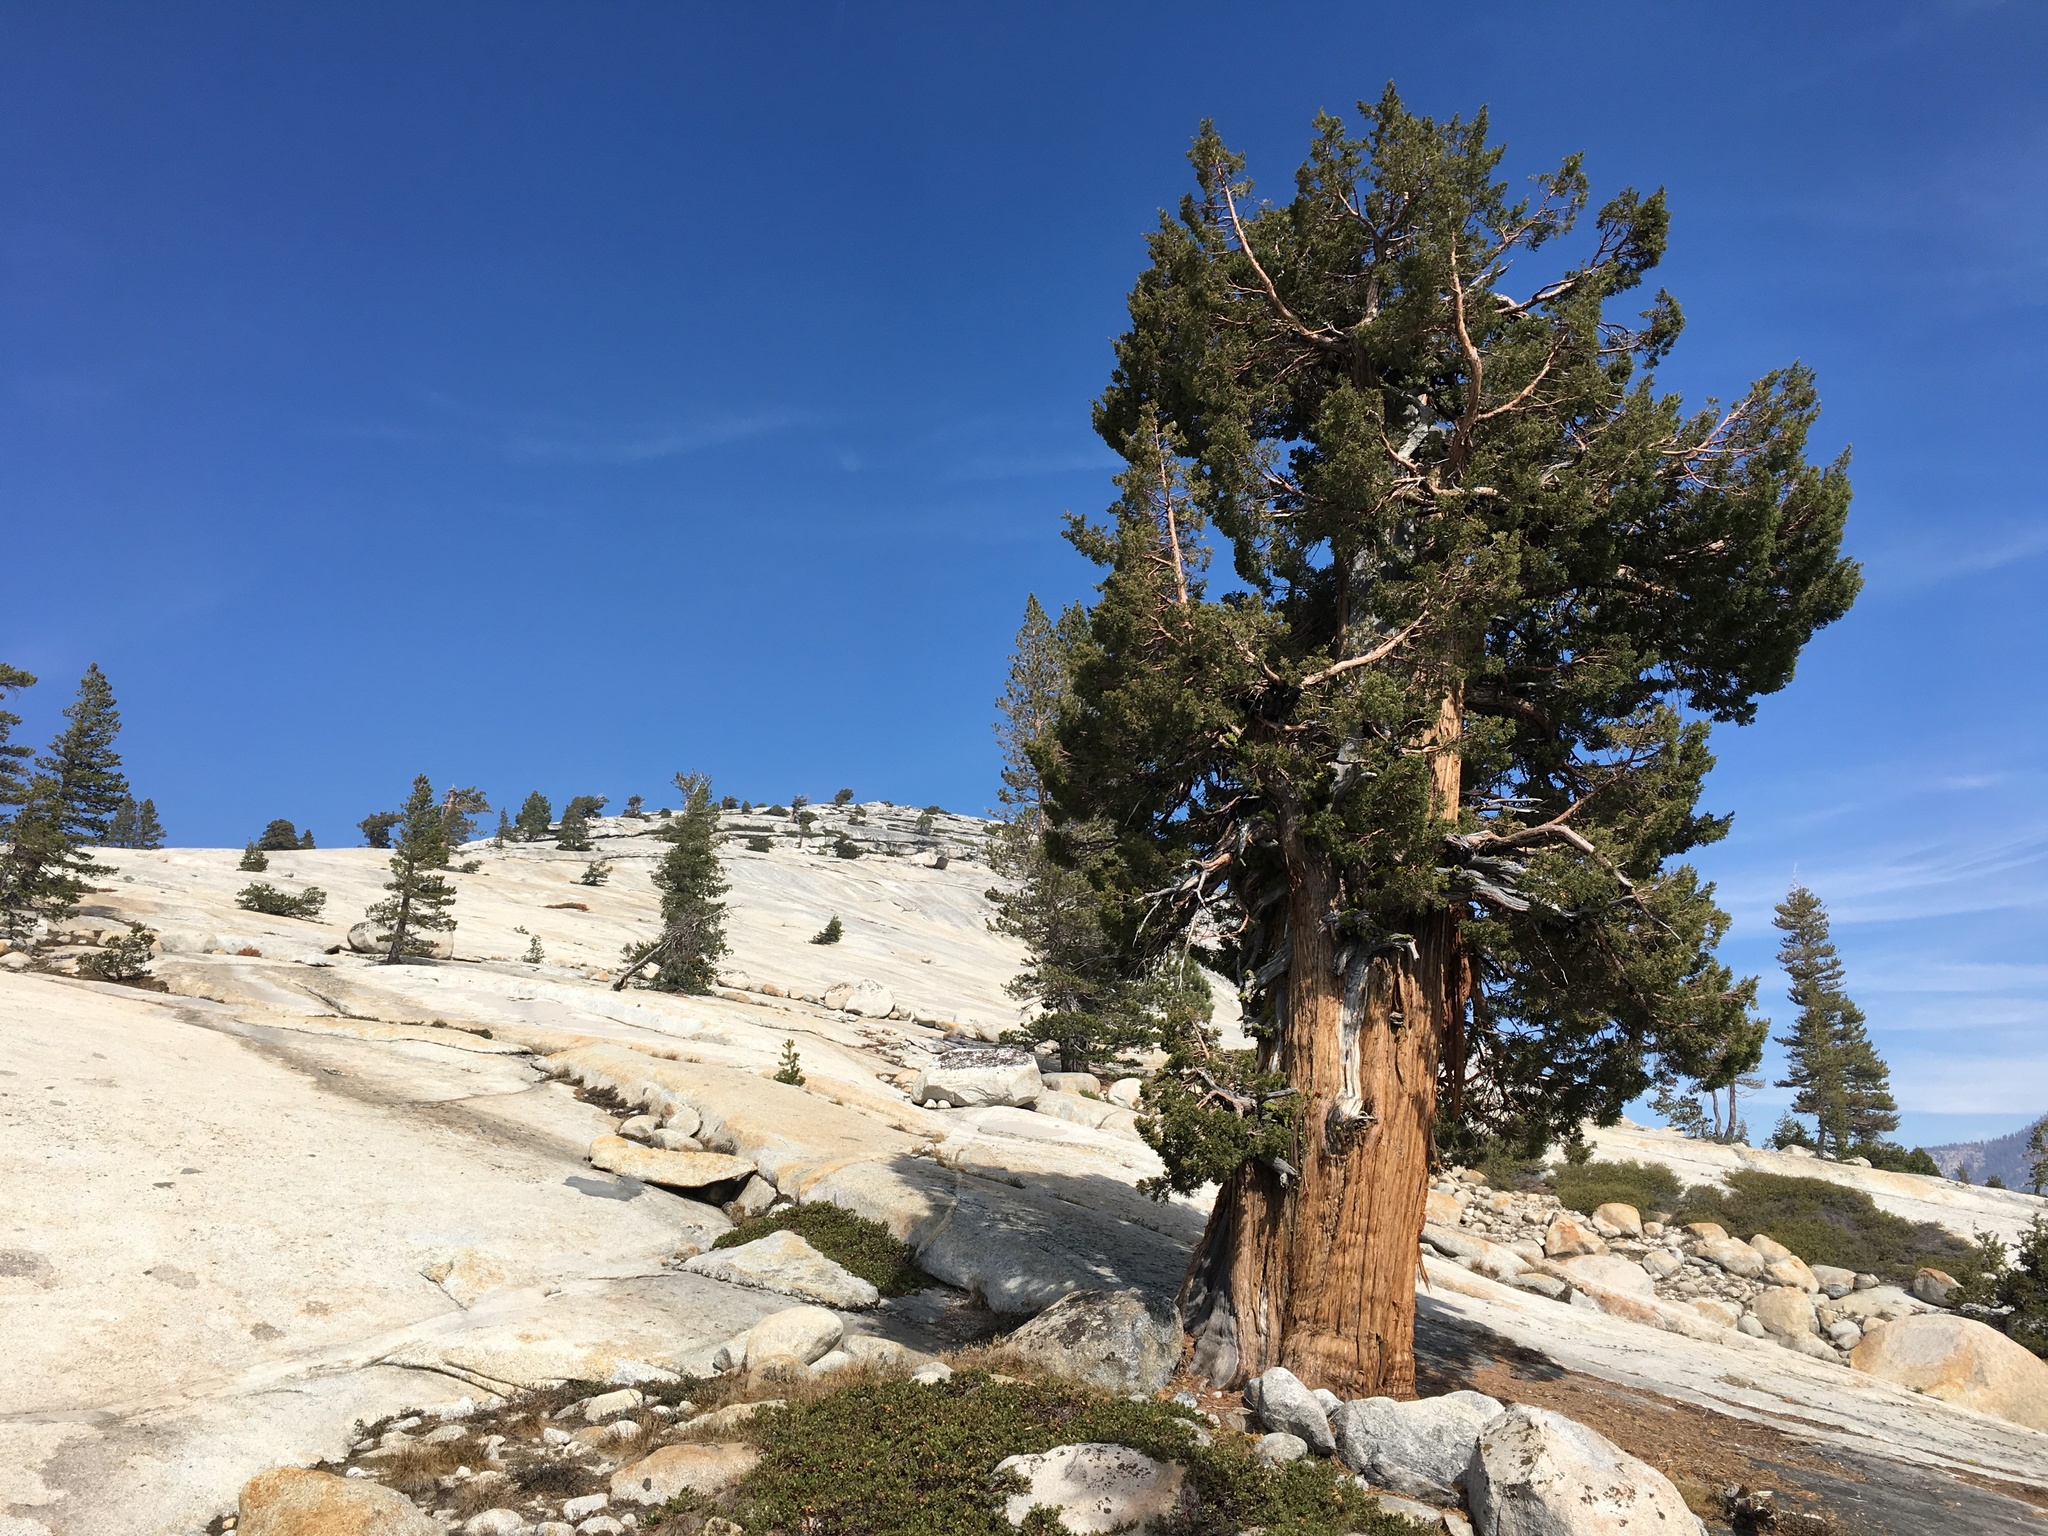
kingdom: Plantae
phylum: Tracheophyta
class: Pinopsida
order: Pinales
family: Cupressaceae
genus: Juniperus
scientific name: Juniperus occidentalis
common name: Western juniper
